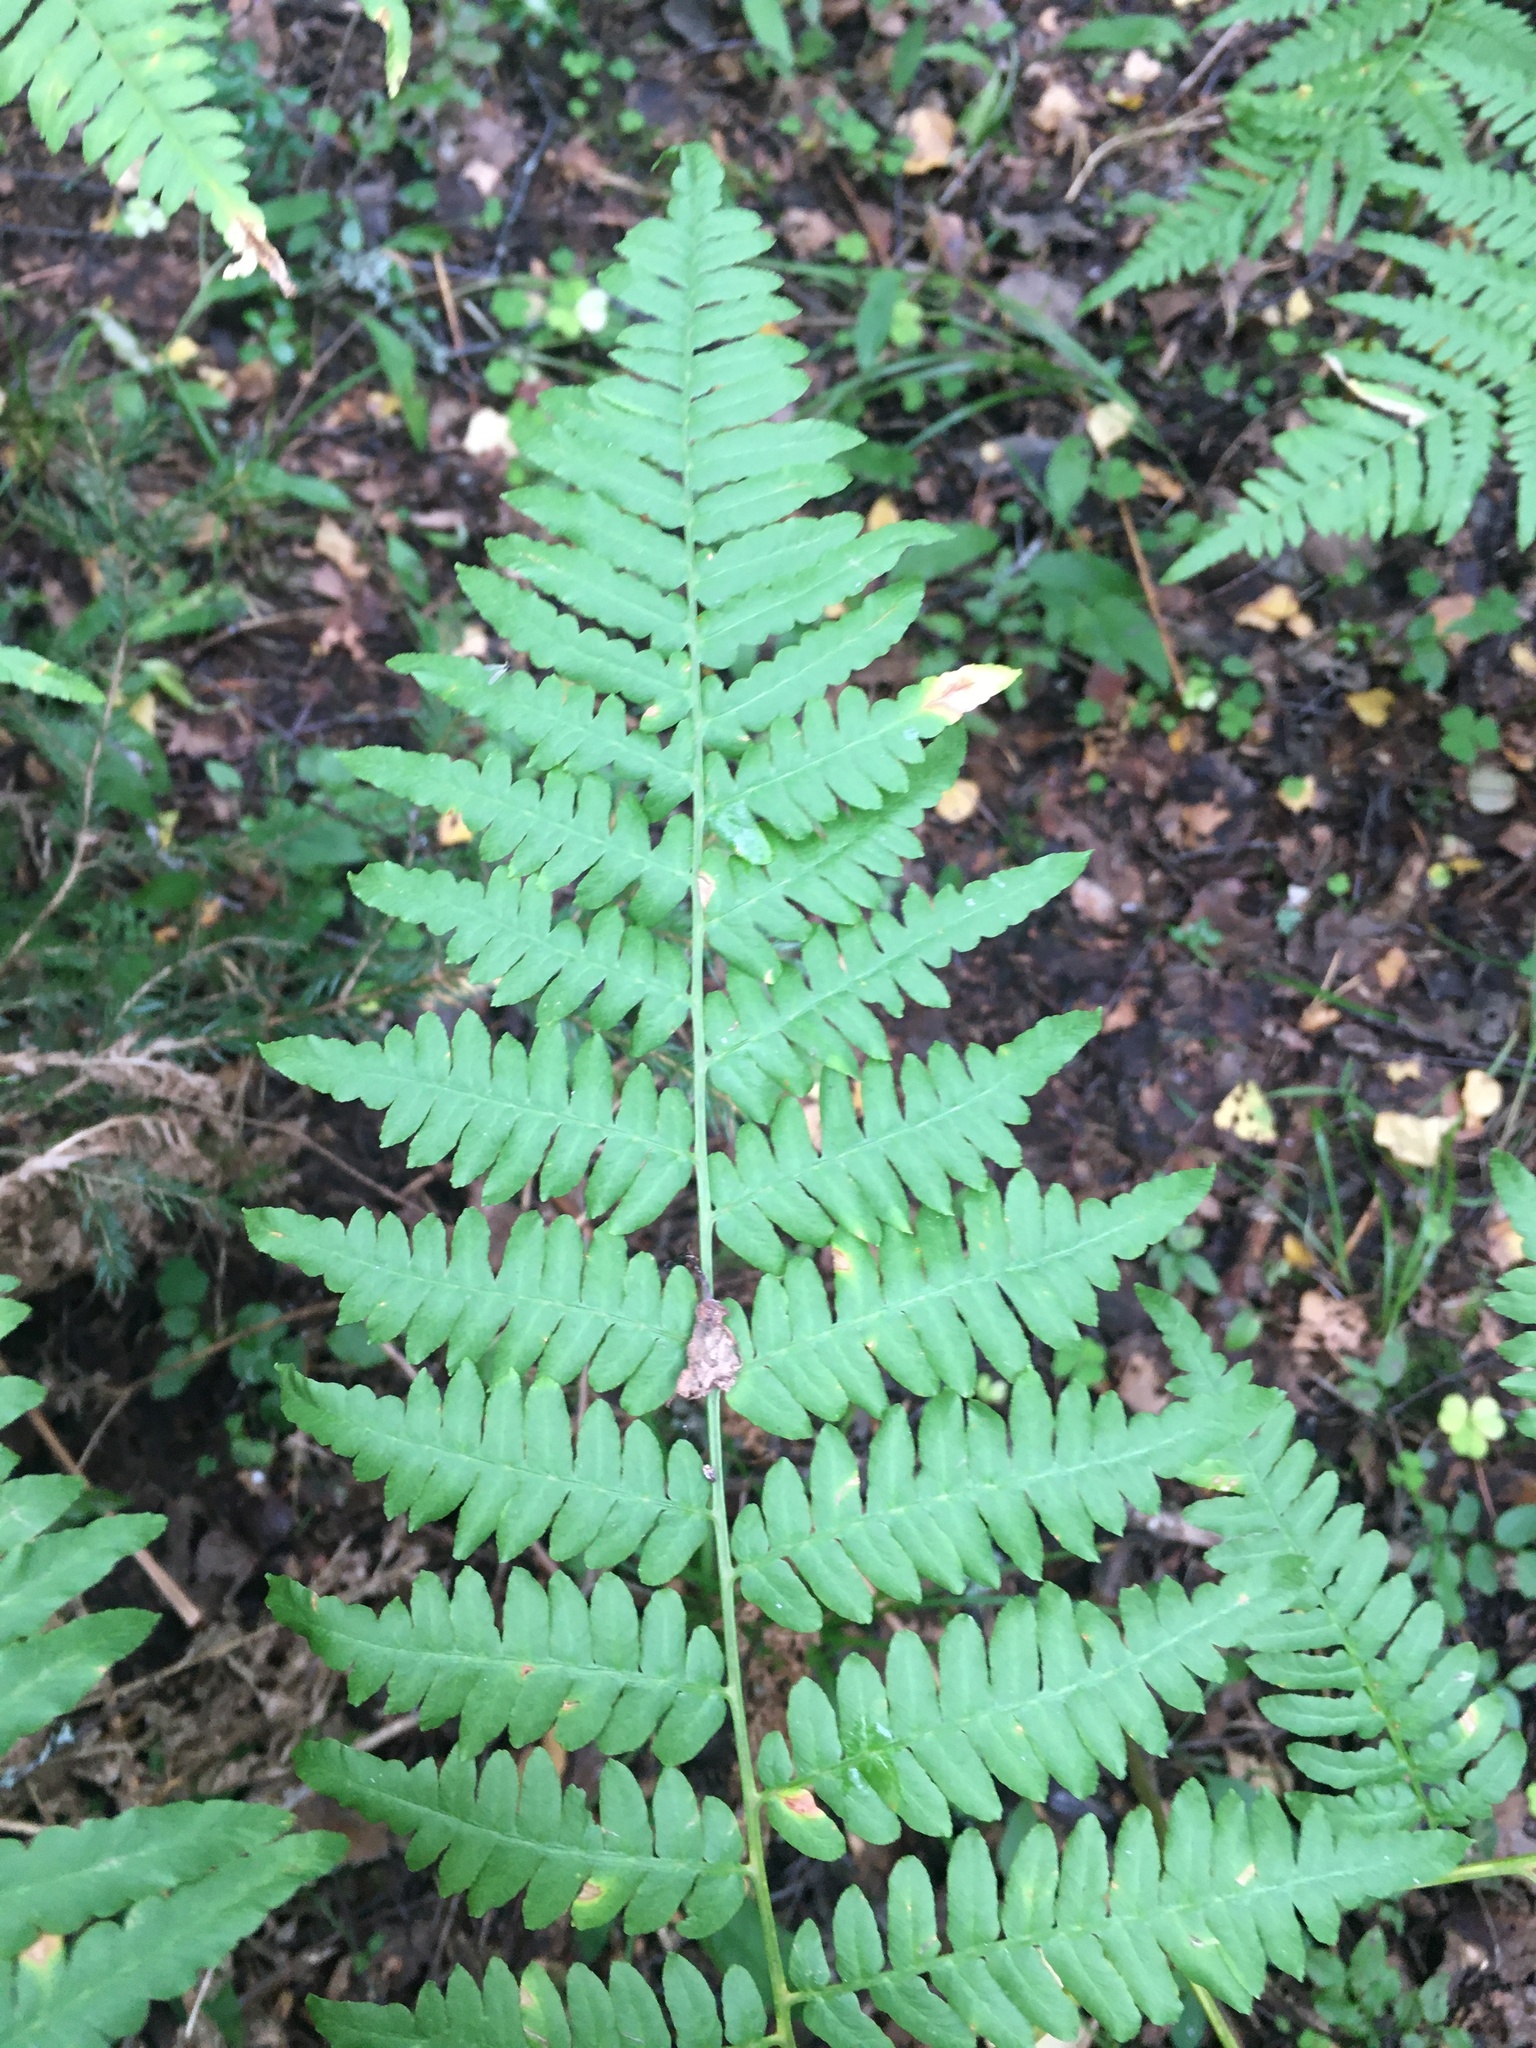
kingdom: Plantae
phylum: Tracheophyta
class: Polypodiopsida
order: Polypodiales
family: Dennstaedtiaceae
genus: Pteridium
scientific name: Pteridium aquilinum
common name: Bracken
